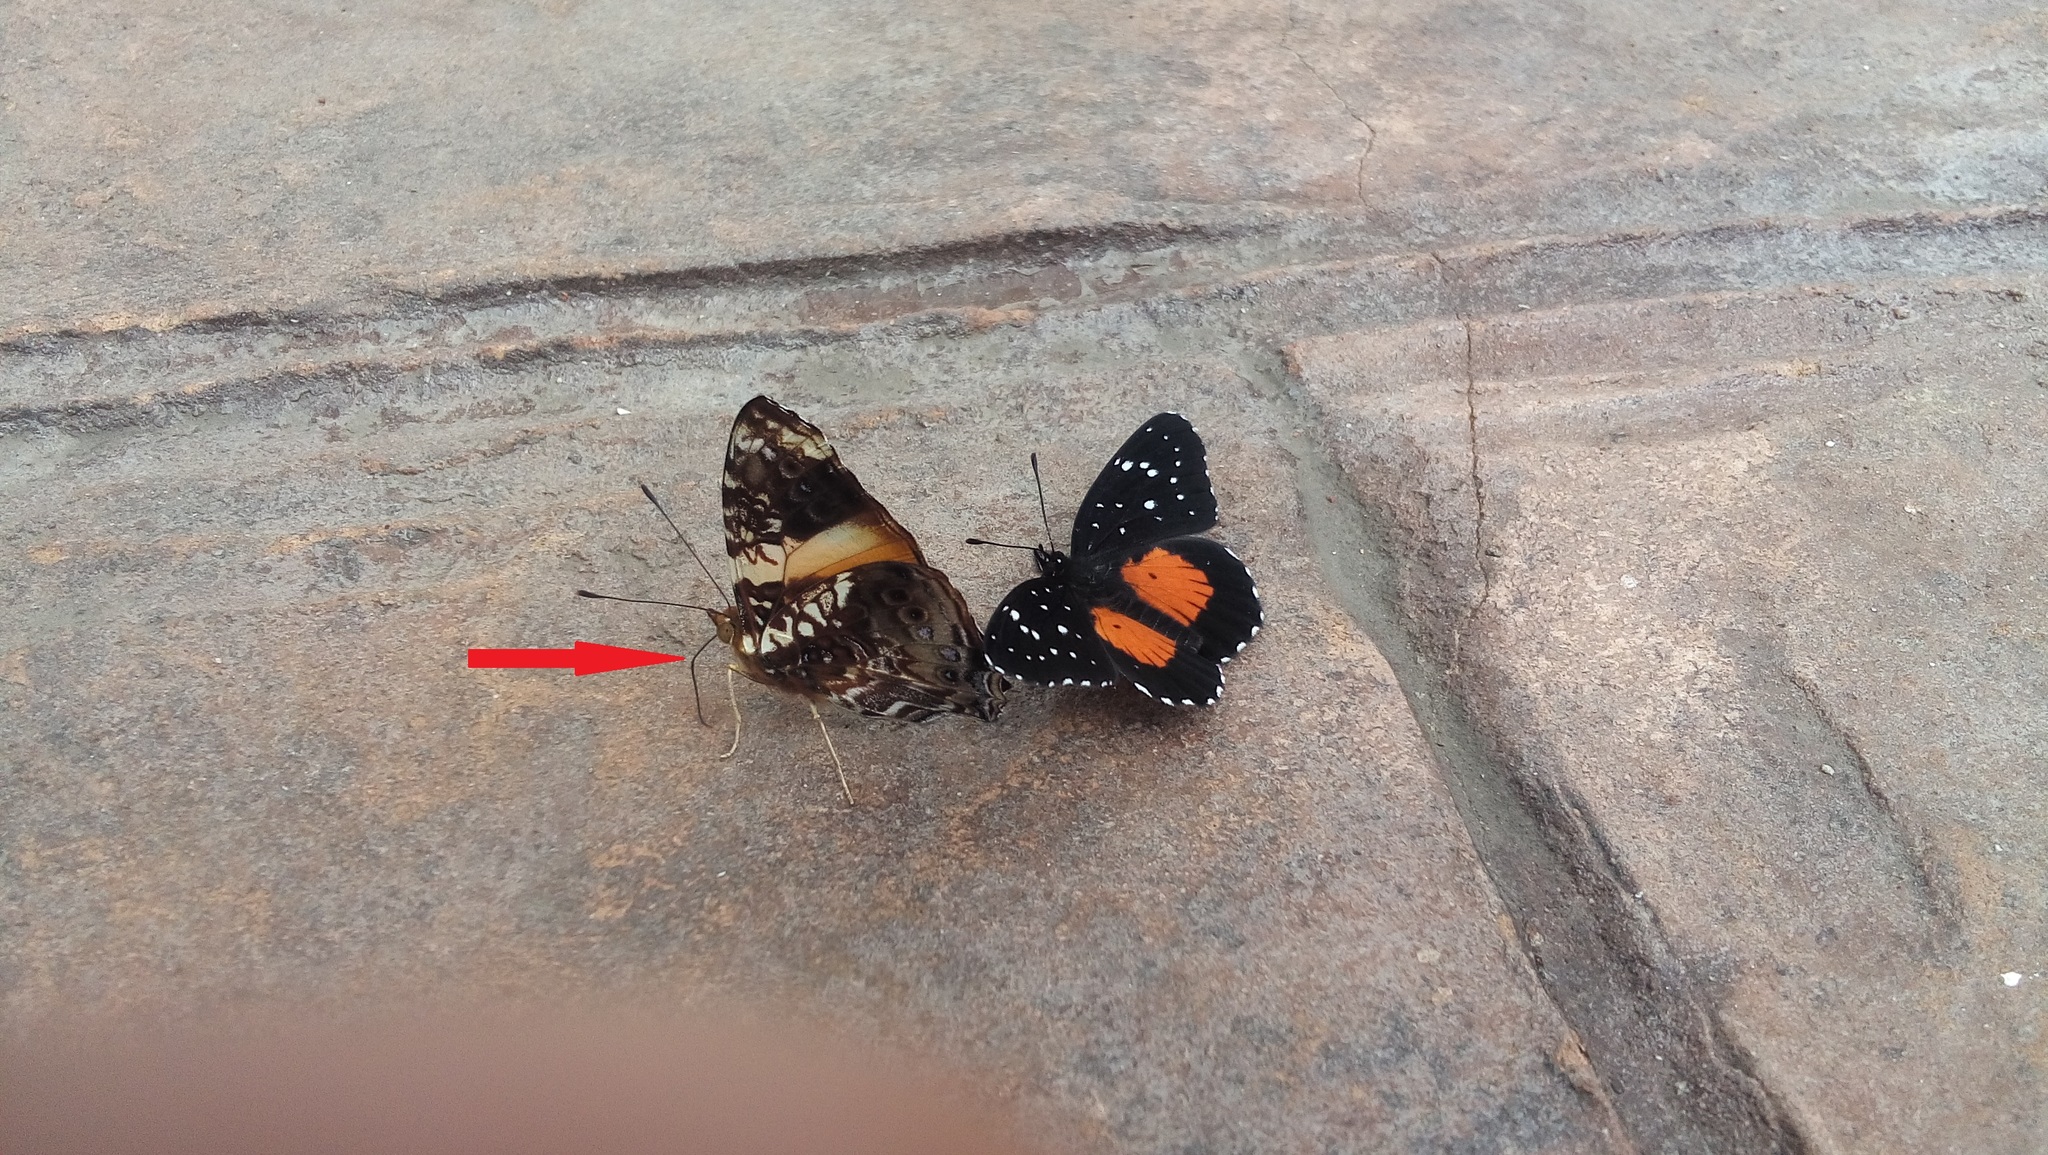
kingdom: Animalia
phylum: Arthropoda
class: Insecta
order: Lepidoptera
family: Nymphalidae
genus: Hypanartia
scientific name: Hypanartia godmanii
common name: Godman's mapwing
